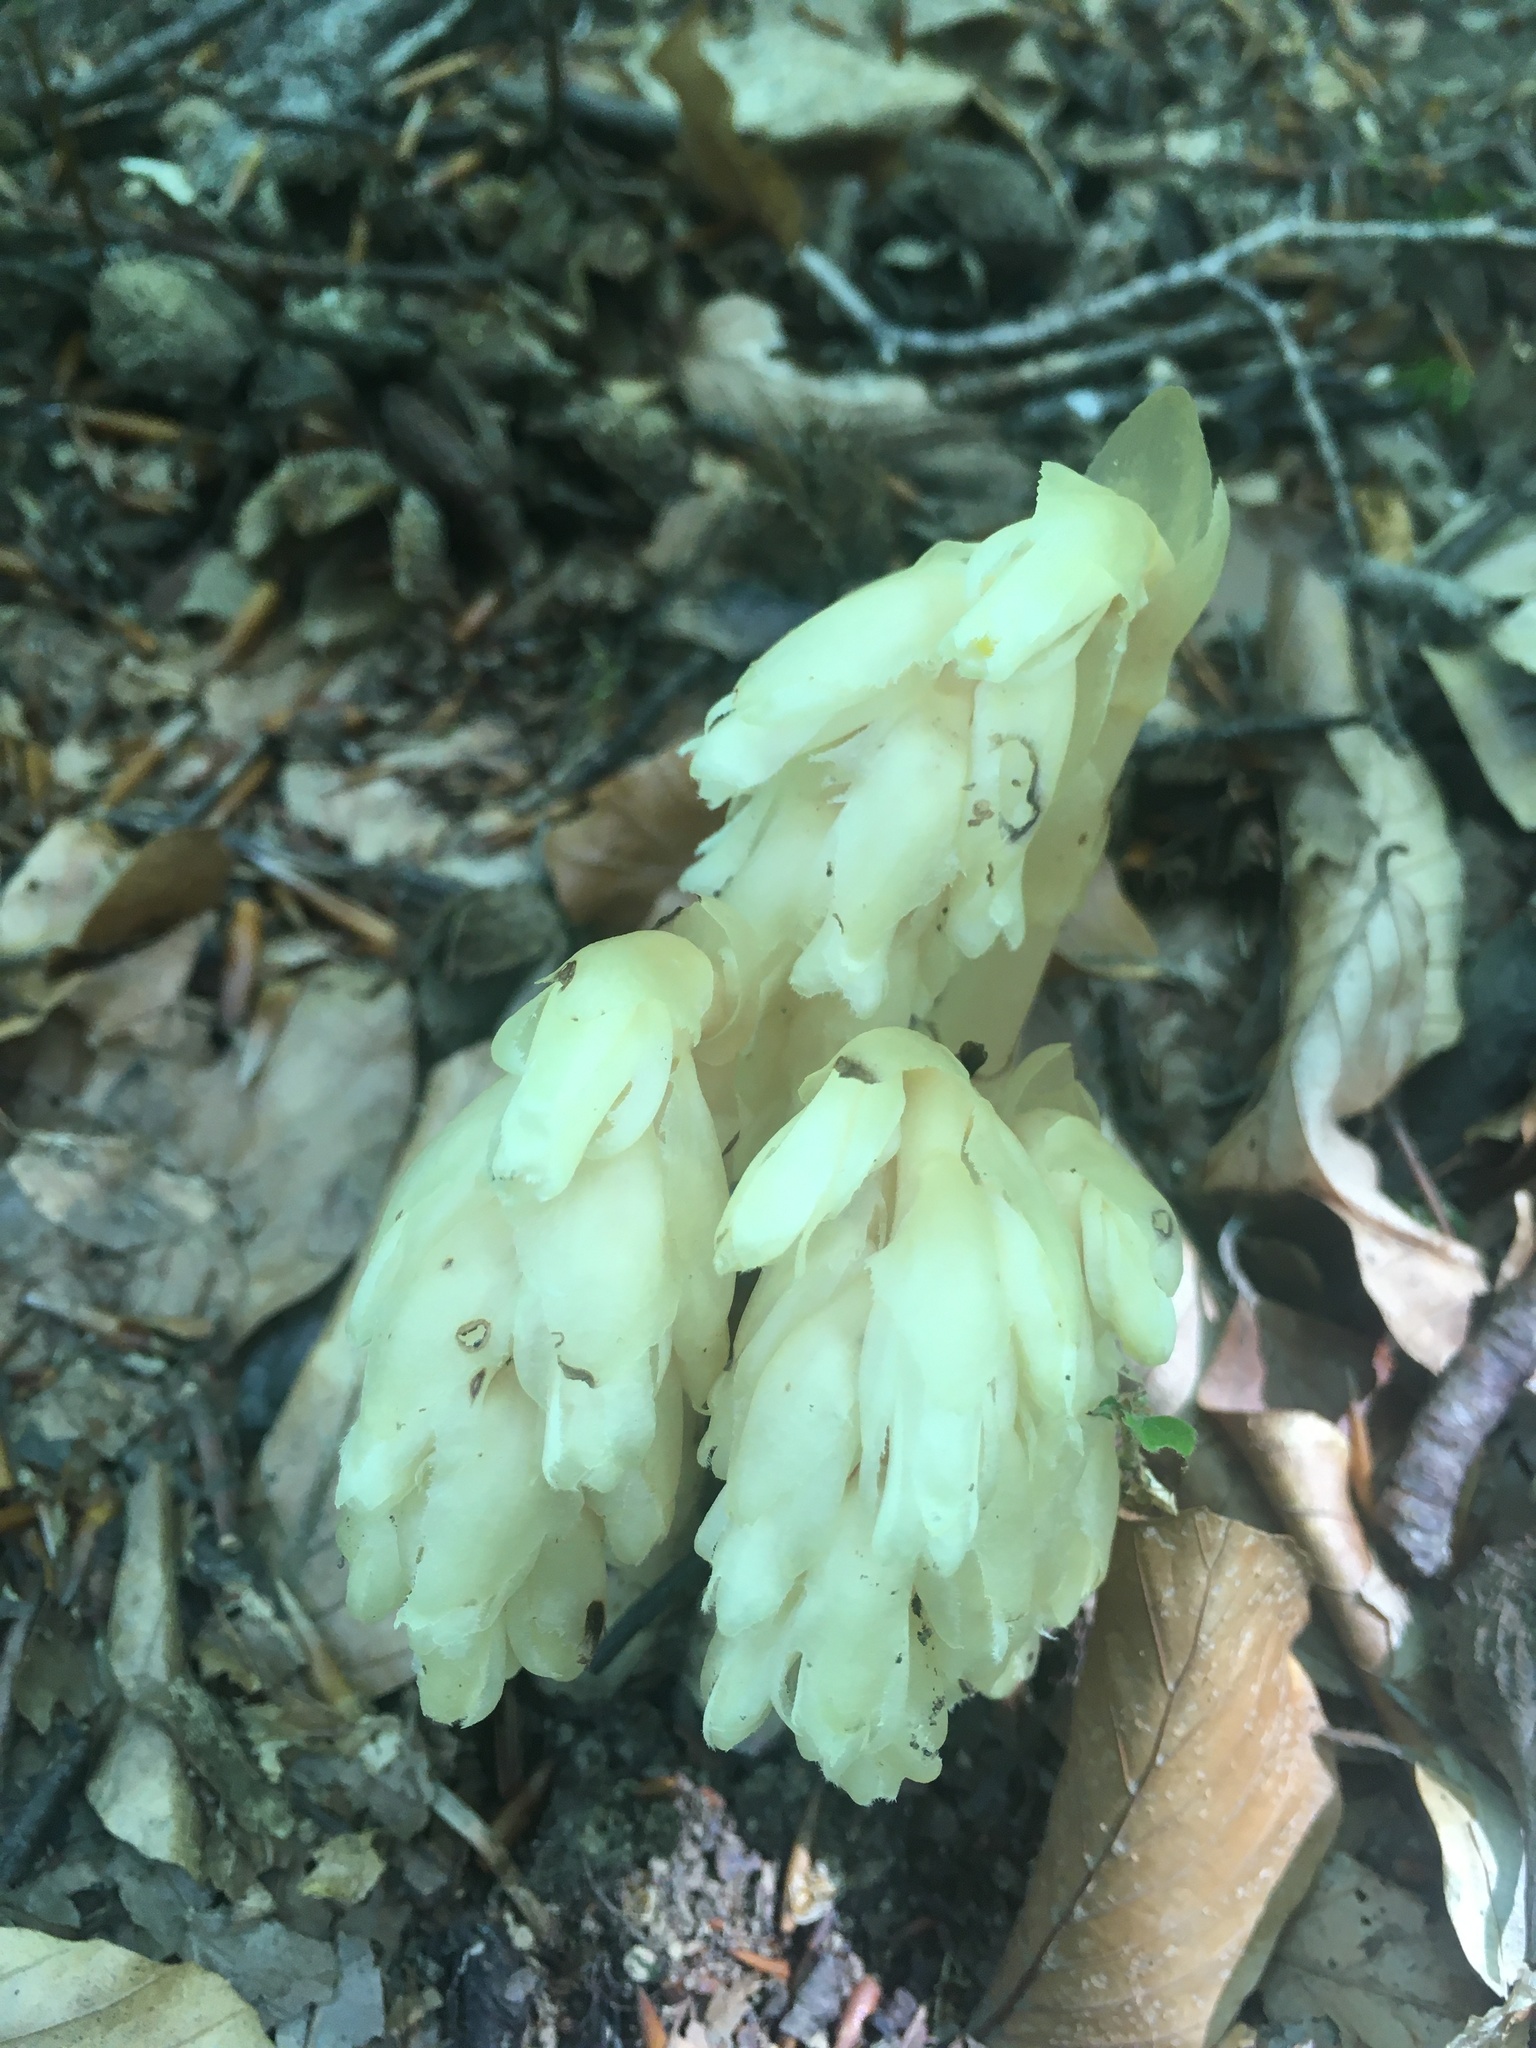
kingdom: Plantae
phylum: Tracheophyta
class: Magnoliopsida
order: Ericales
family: Ericaceae
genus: Hypopitys
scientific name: Hypopitys monotropa
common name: Yellow bird's-nest
